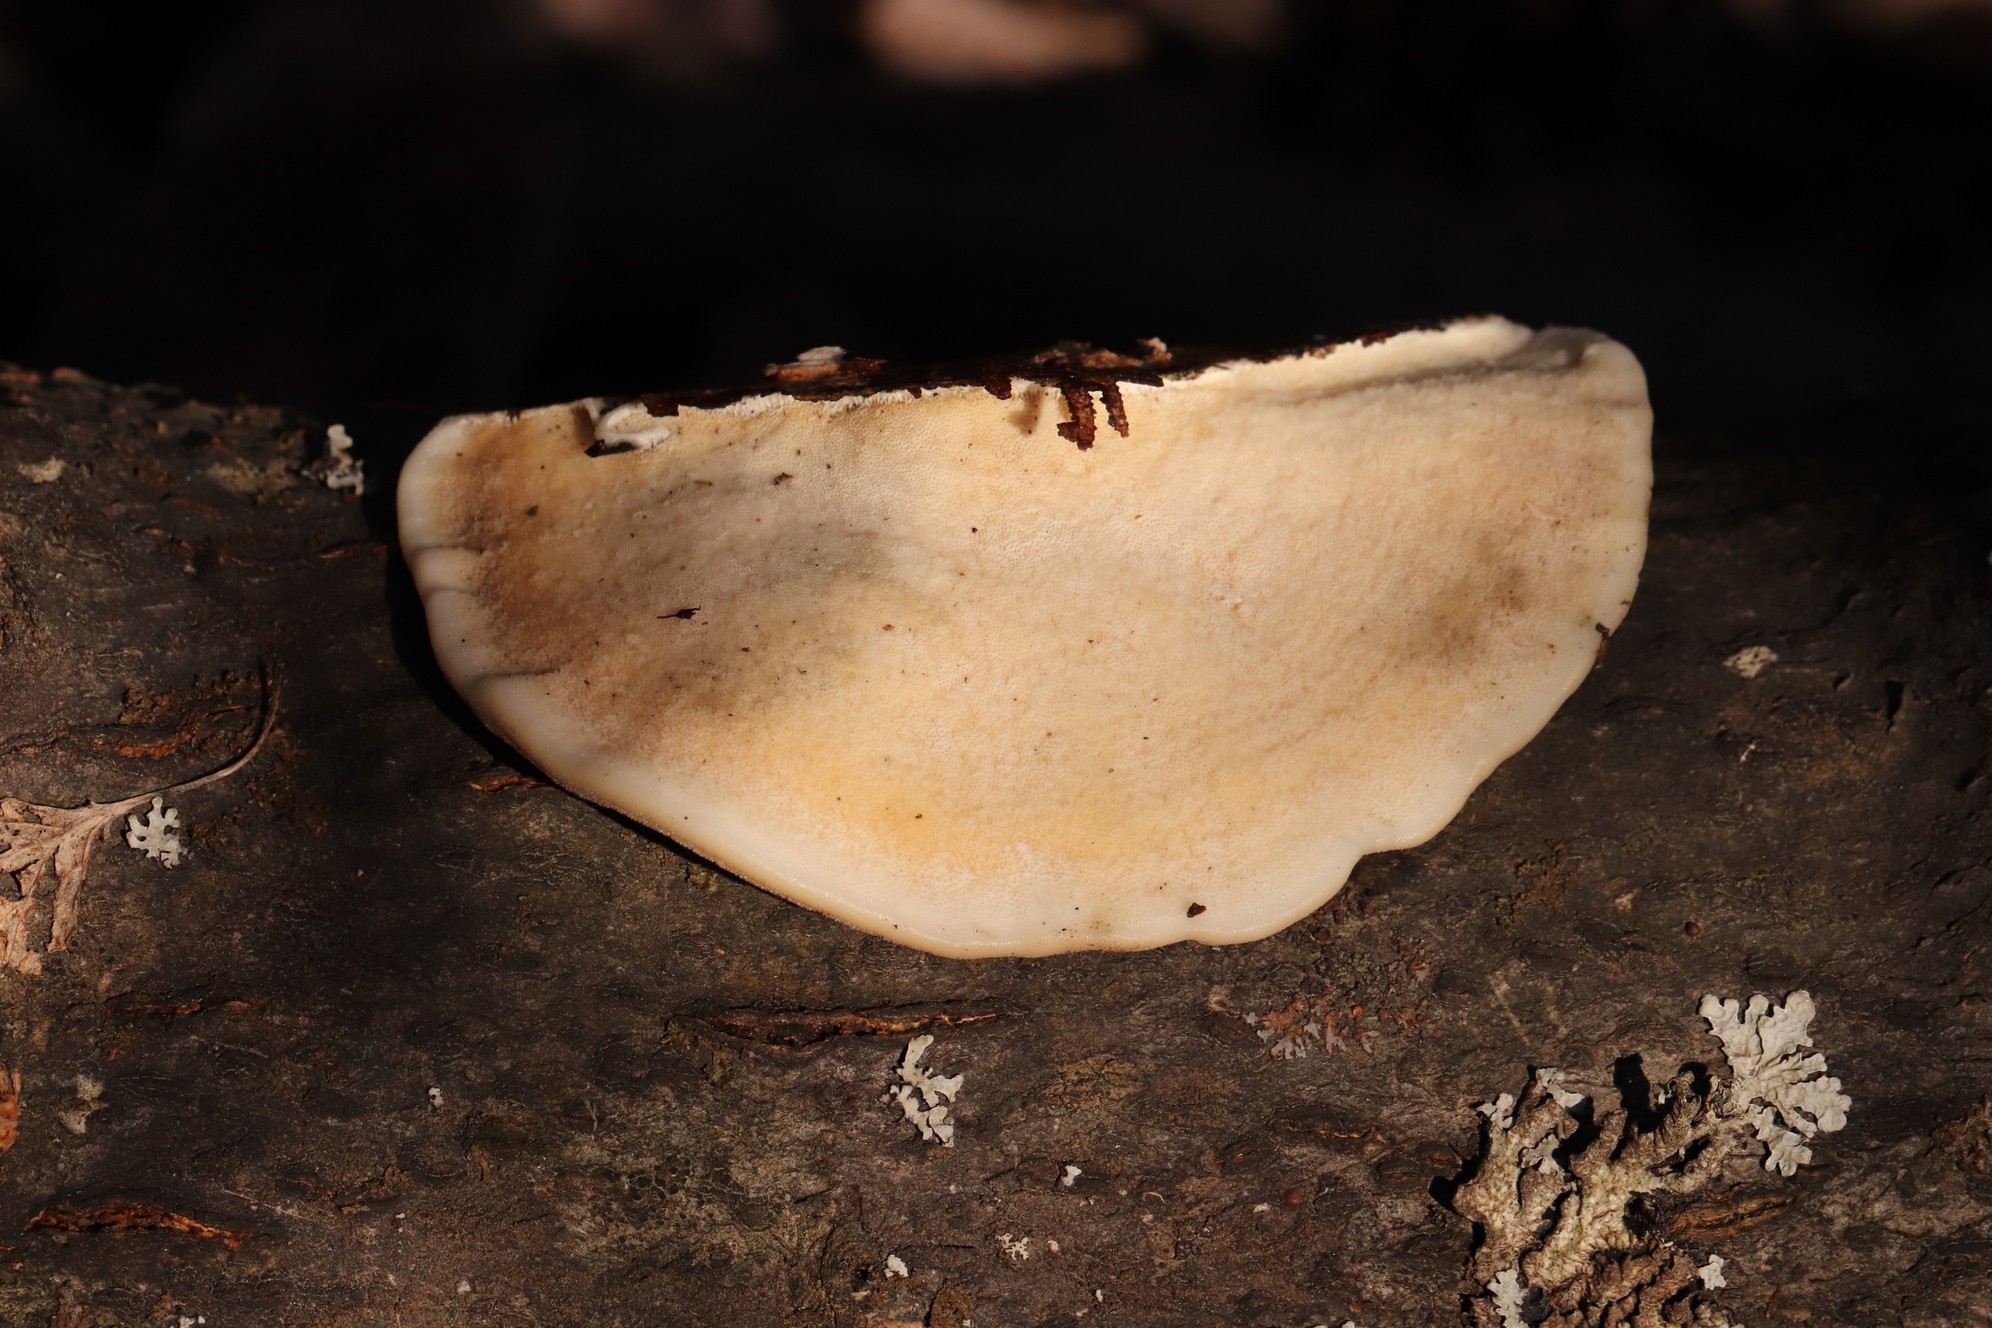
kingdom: Fungi
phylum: Basidiomycota
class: Agaricomycetes
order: Polyporales
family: Polyporaceae
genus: Trametes
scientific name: Trametes hirsuta
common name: Hairy bracket
